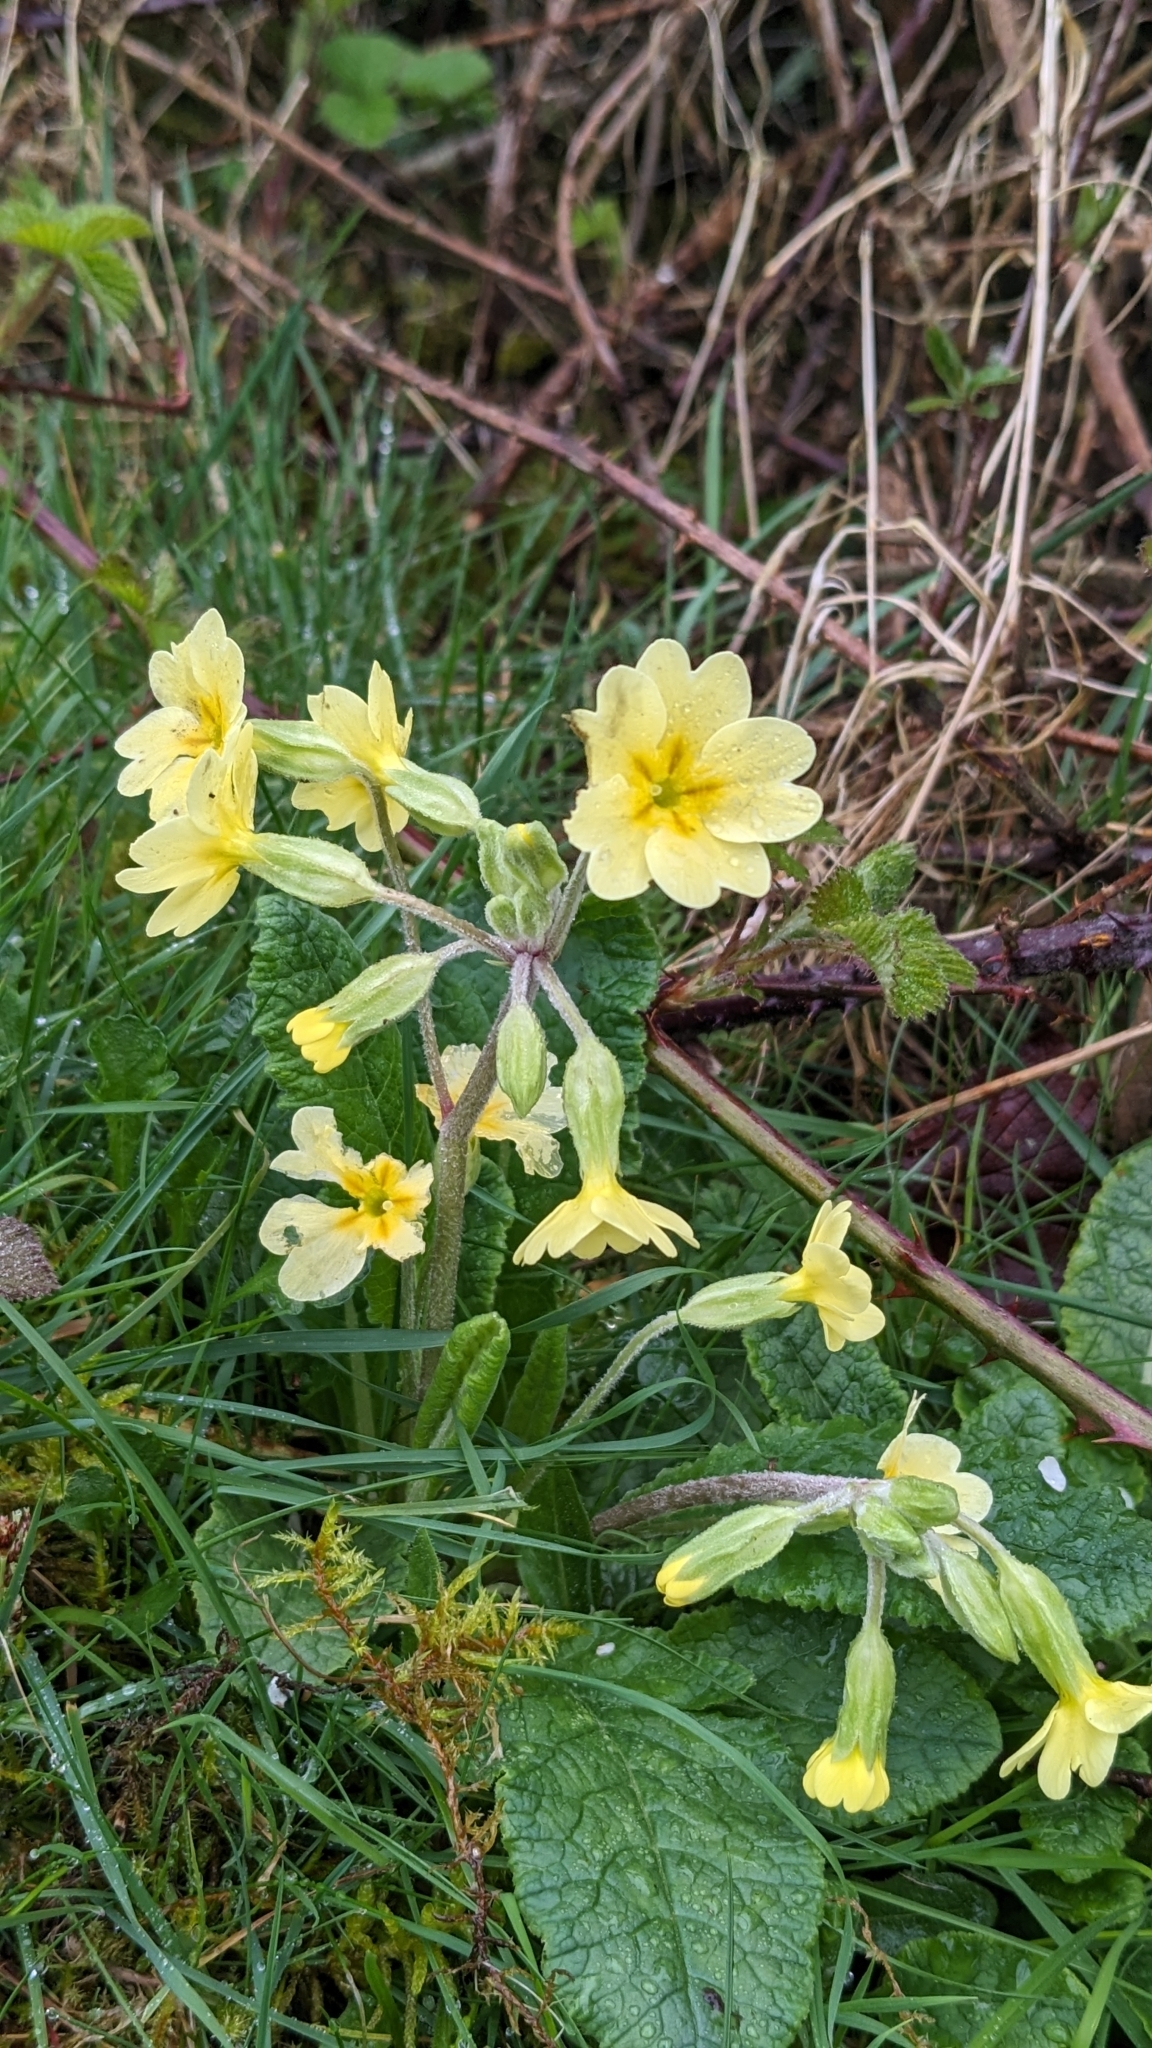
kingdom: Plantae
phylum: Tracheophyta
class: Magnoliopsida
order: Ericales
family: Primulaceae
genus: Primula
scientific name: Primula polyantha
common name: False oxlip
